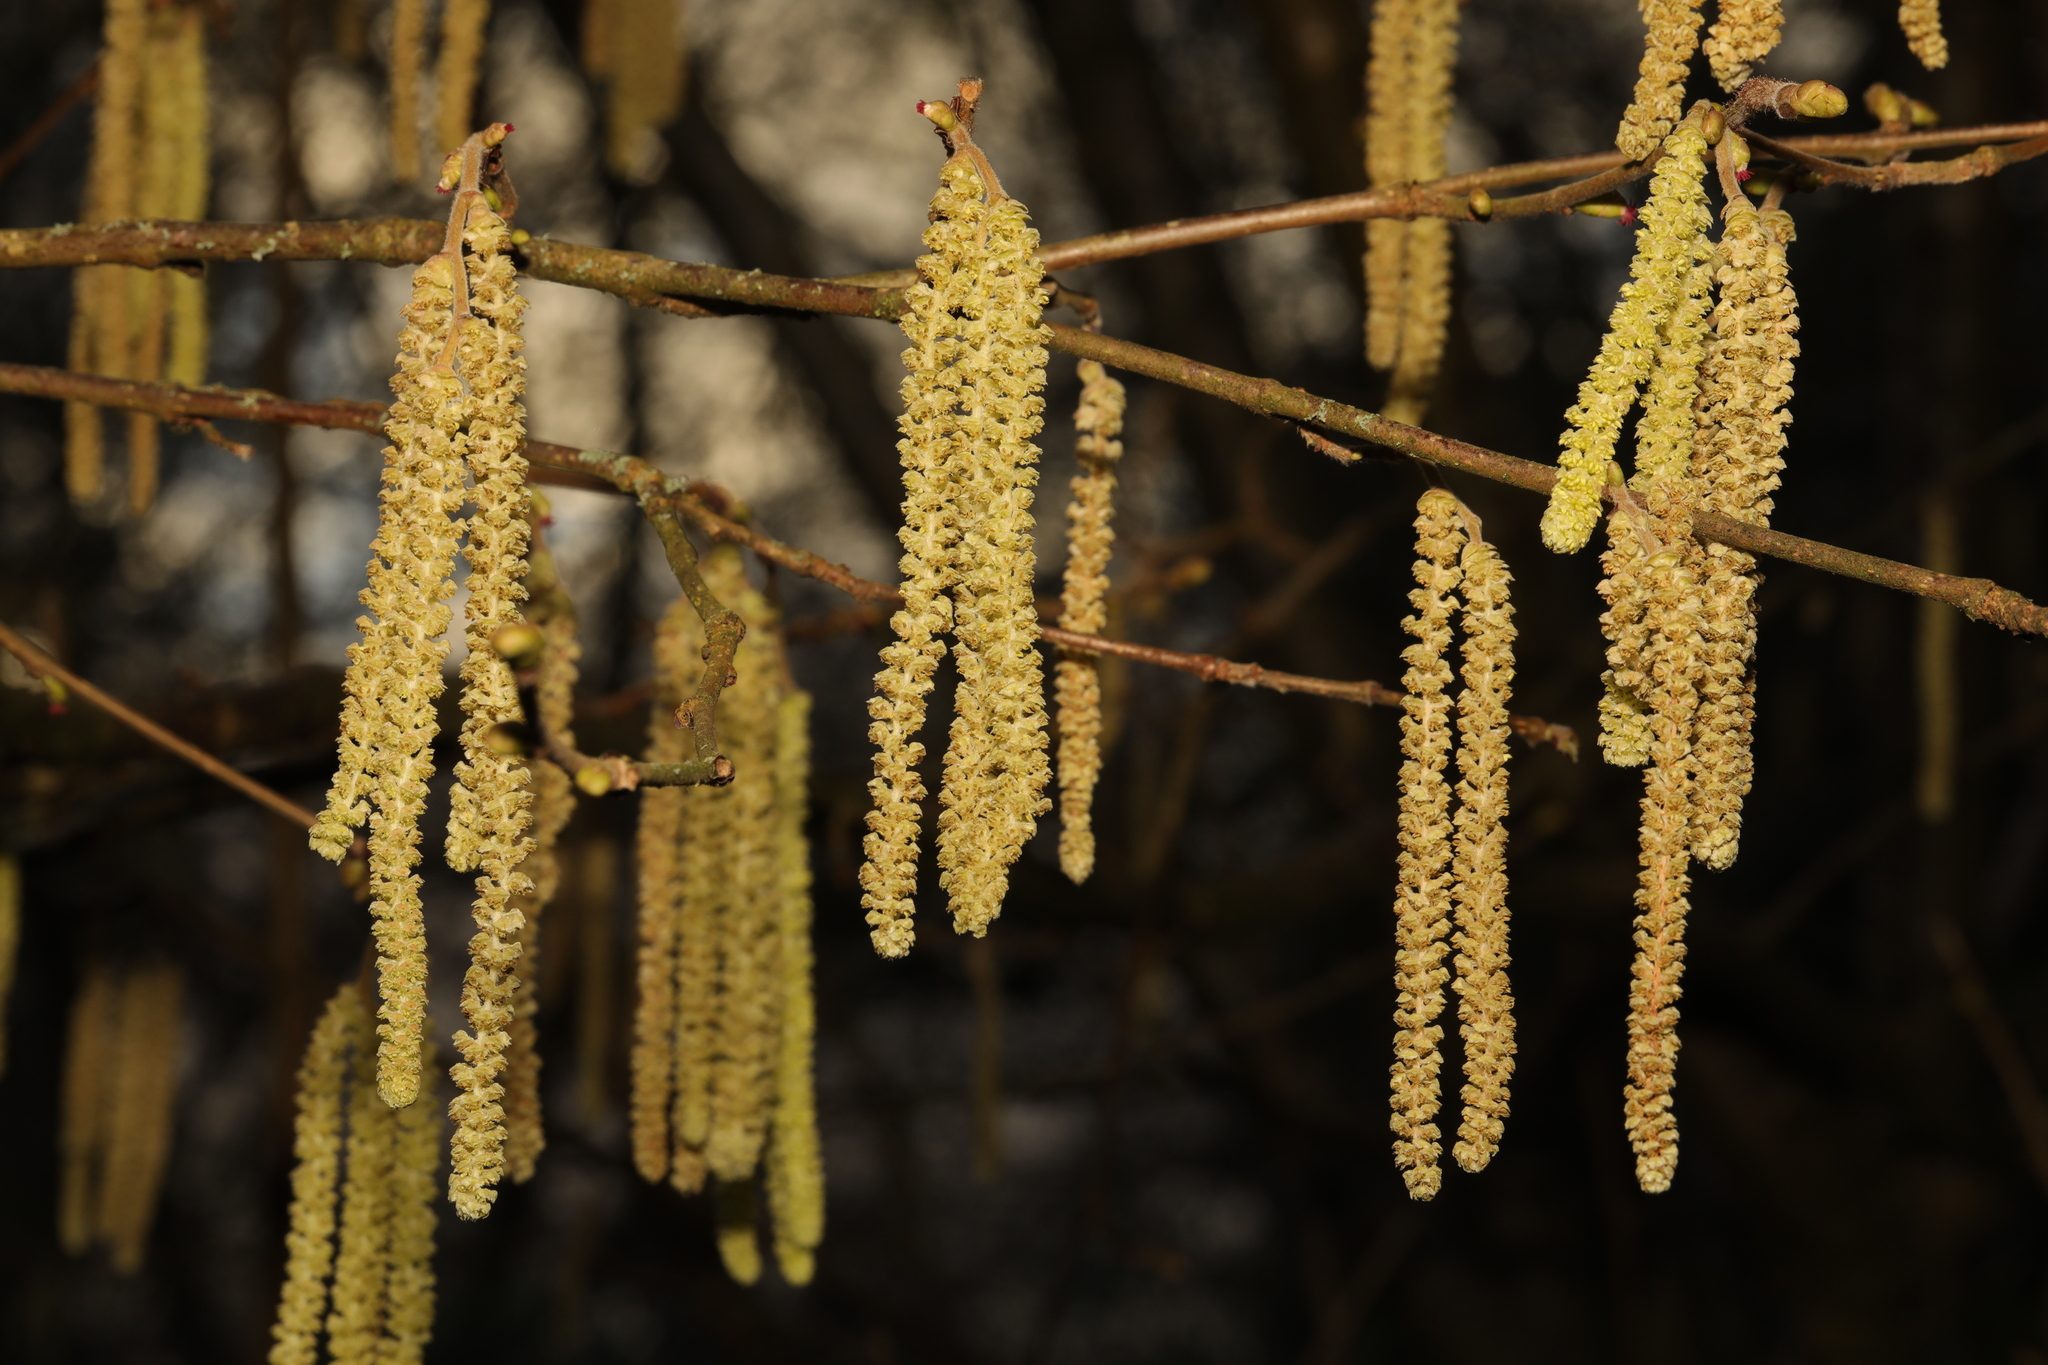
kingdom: Plantae
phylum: Tracheophyta
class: Magnoliopsida
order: Fagales
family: Betulaceae
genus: Corylus
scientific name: Corylus avellana
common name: European hazel
